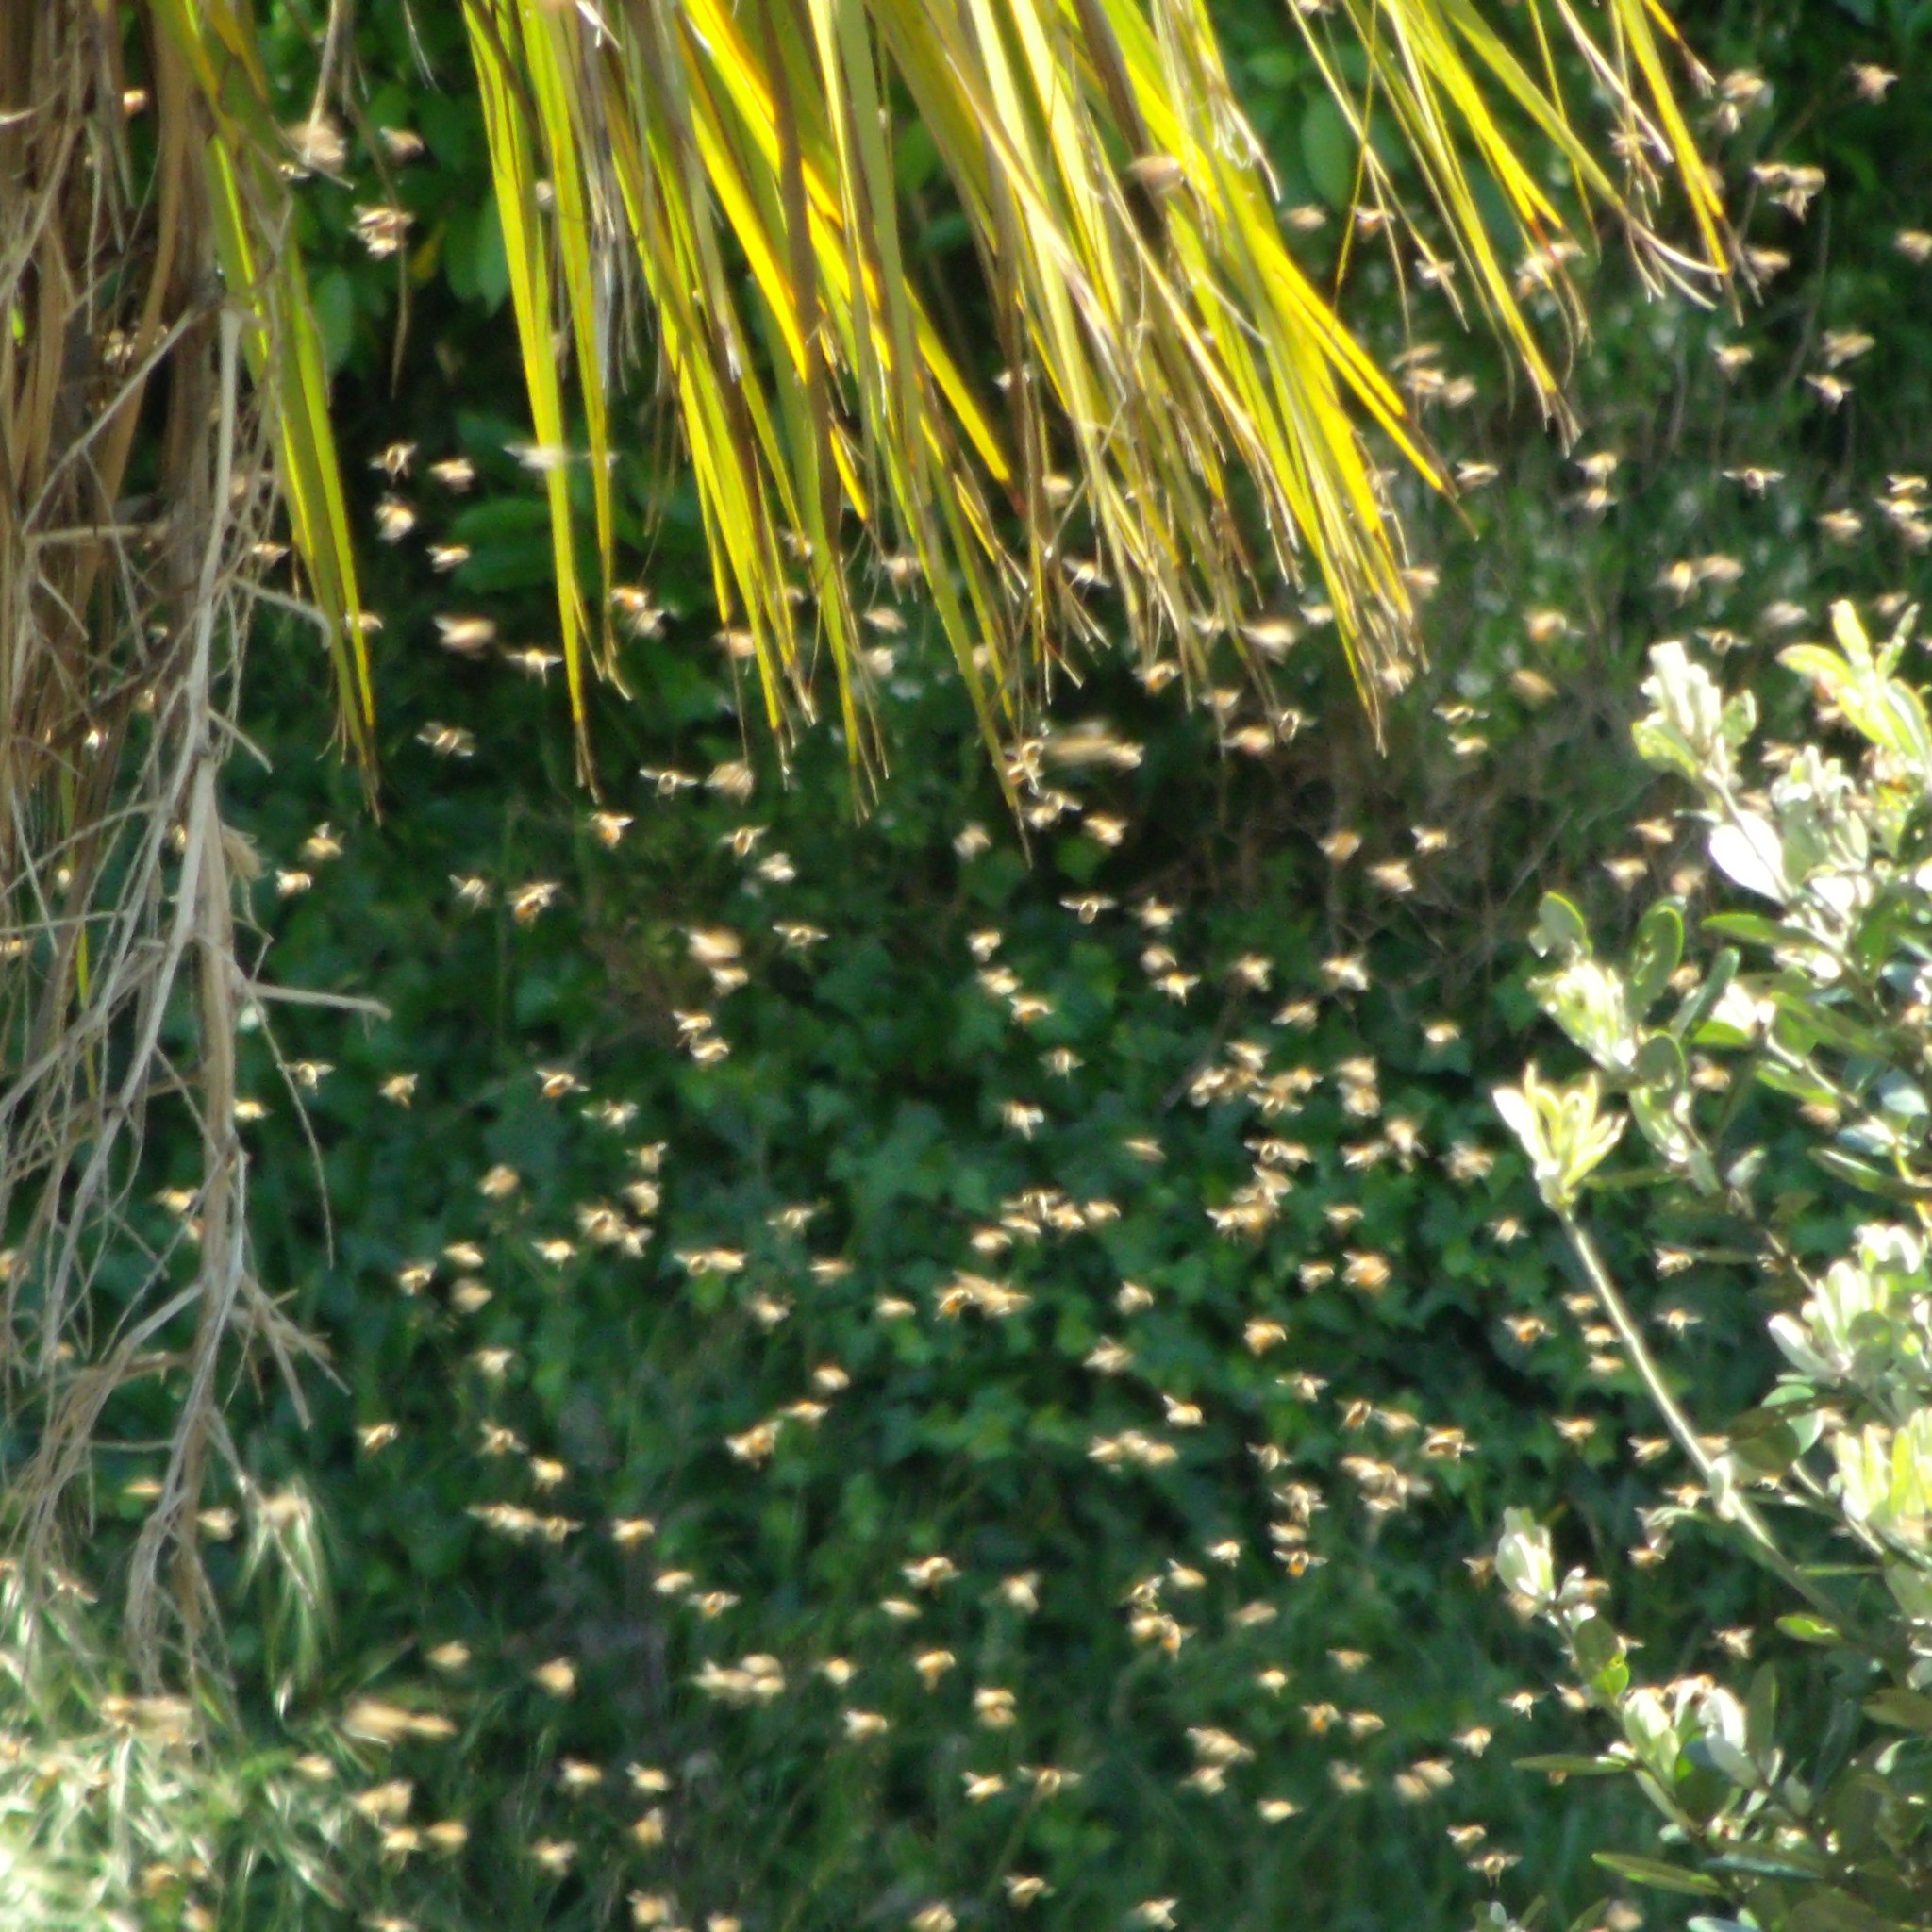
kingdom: Animalia
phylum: Arthropoda
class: Insecta
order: Hymenoptera
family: Apidae
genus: Apis
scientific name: Apis mellifera
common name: Honey bee
